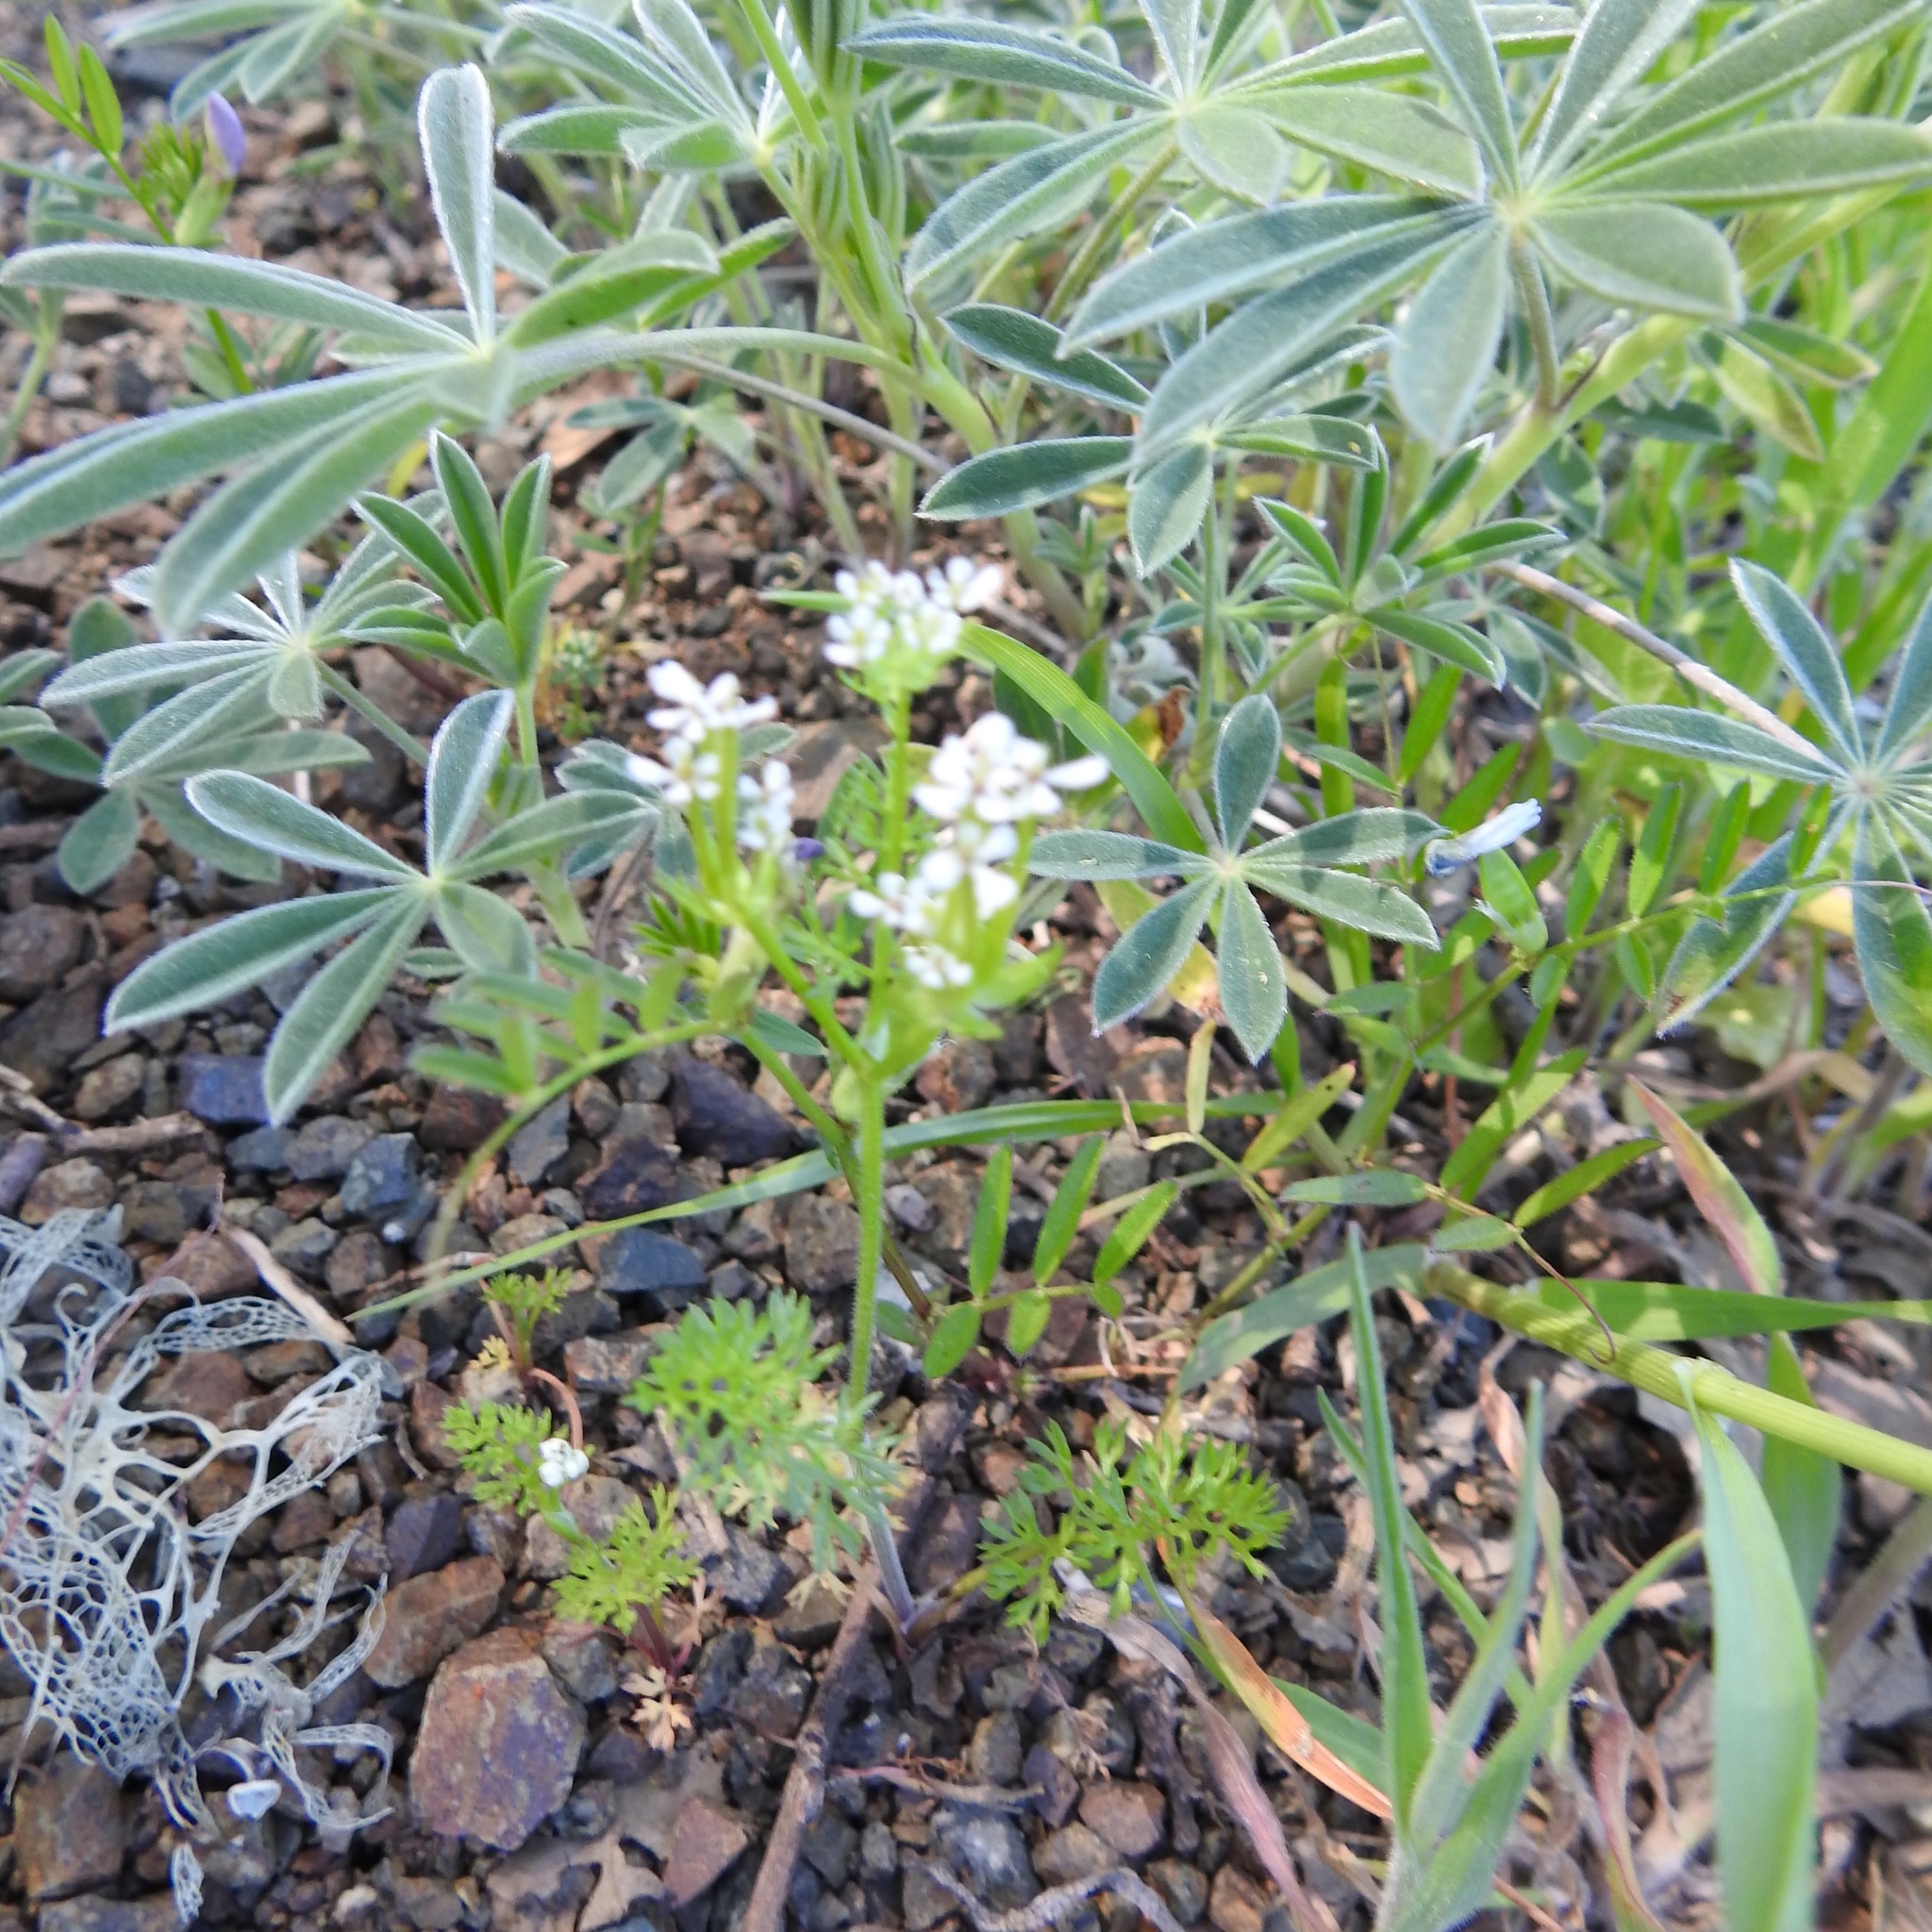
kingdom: Plantae
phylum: Tracheophyta
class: Magnoliopsida
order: Apiales
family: Apiaceae
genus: Scandix
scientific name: Scandix pecten-veneris
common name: Shepherd's-needle
